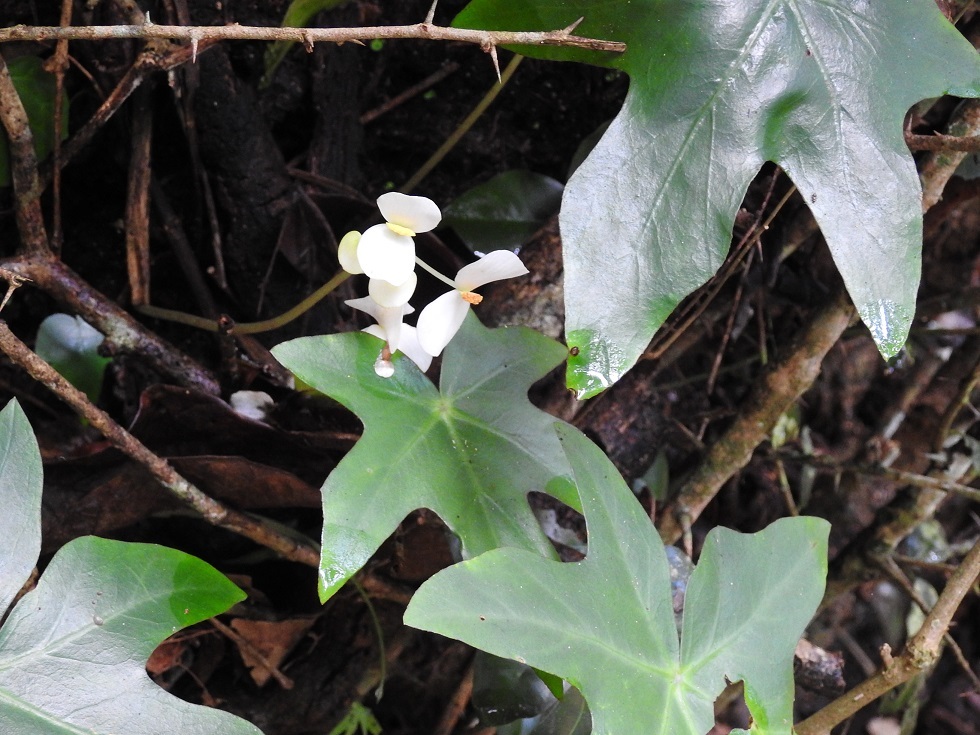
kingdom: Plantae
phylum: Tracheophyta
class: Magnoliopsida
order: Cucurbitales
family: Begoniaceae
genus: Begonia
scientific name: Begonia corzoensis
